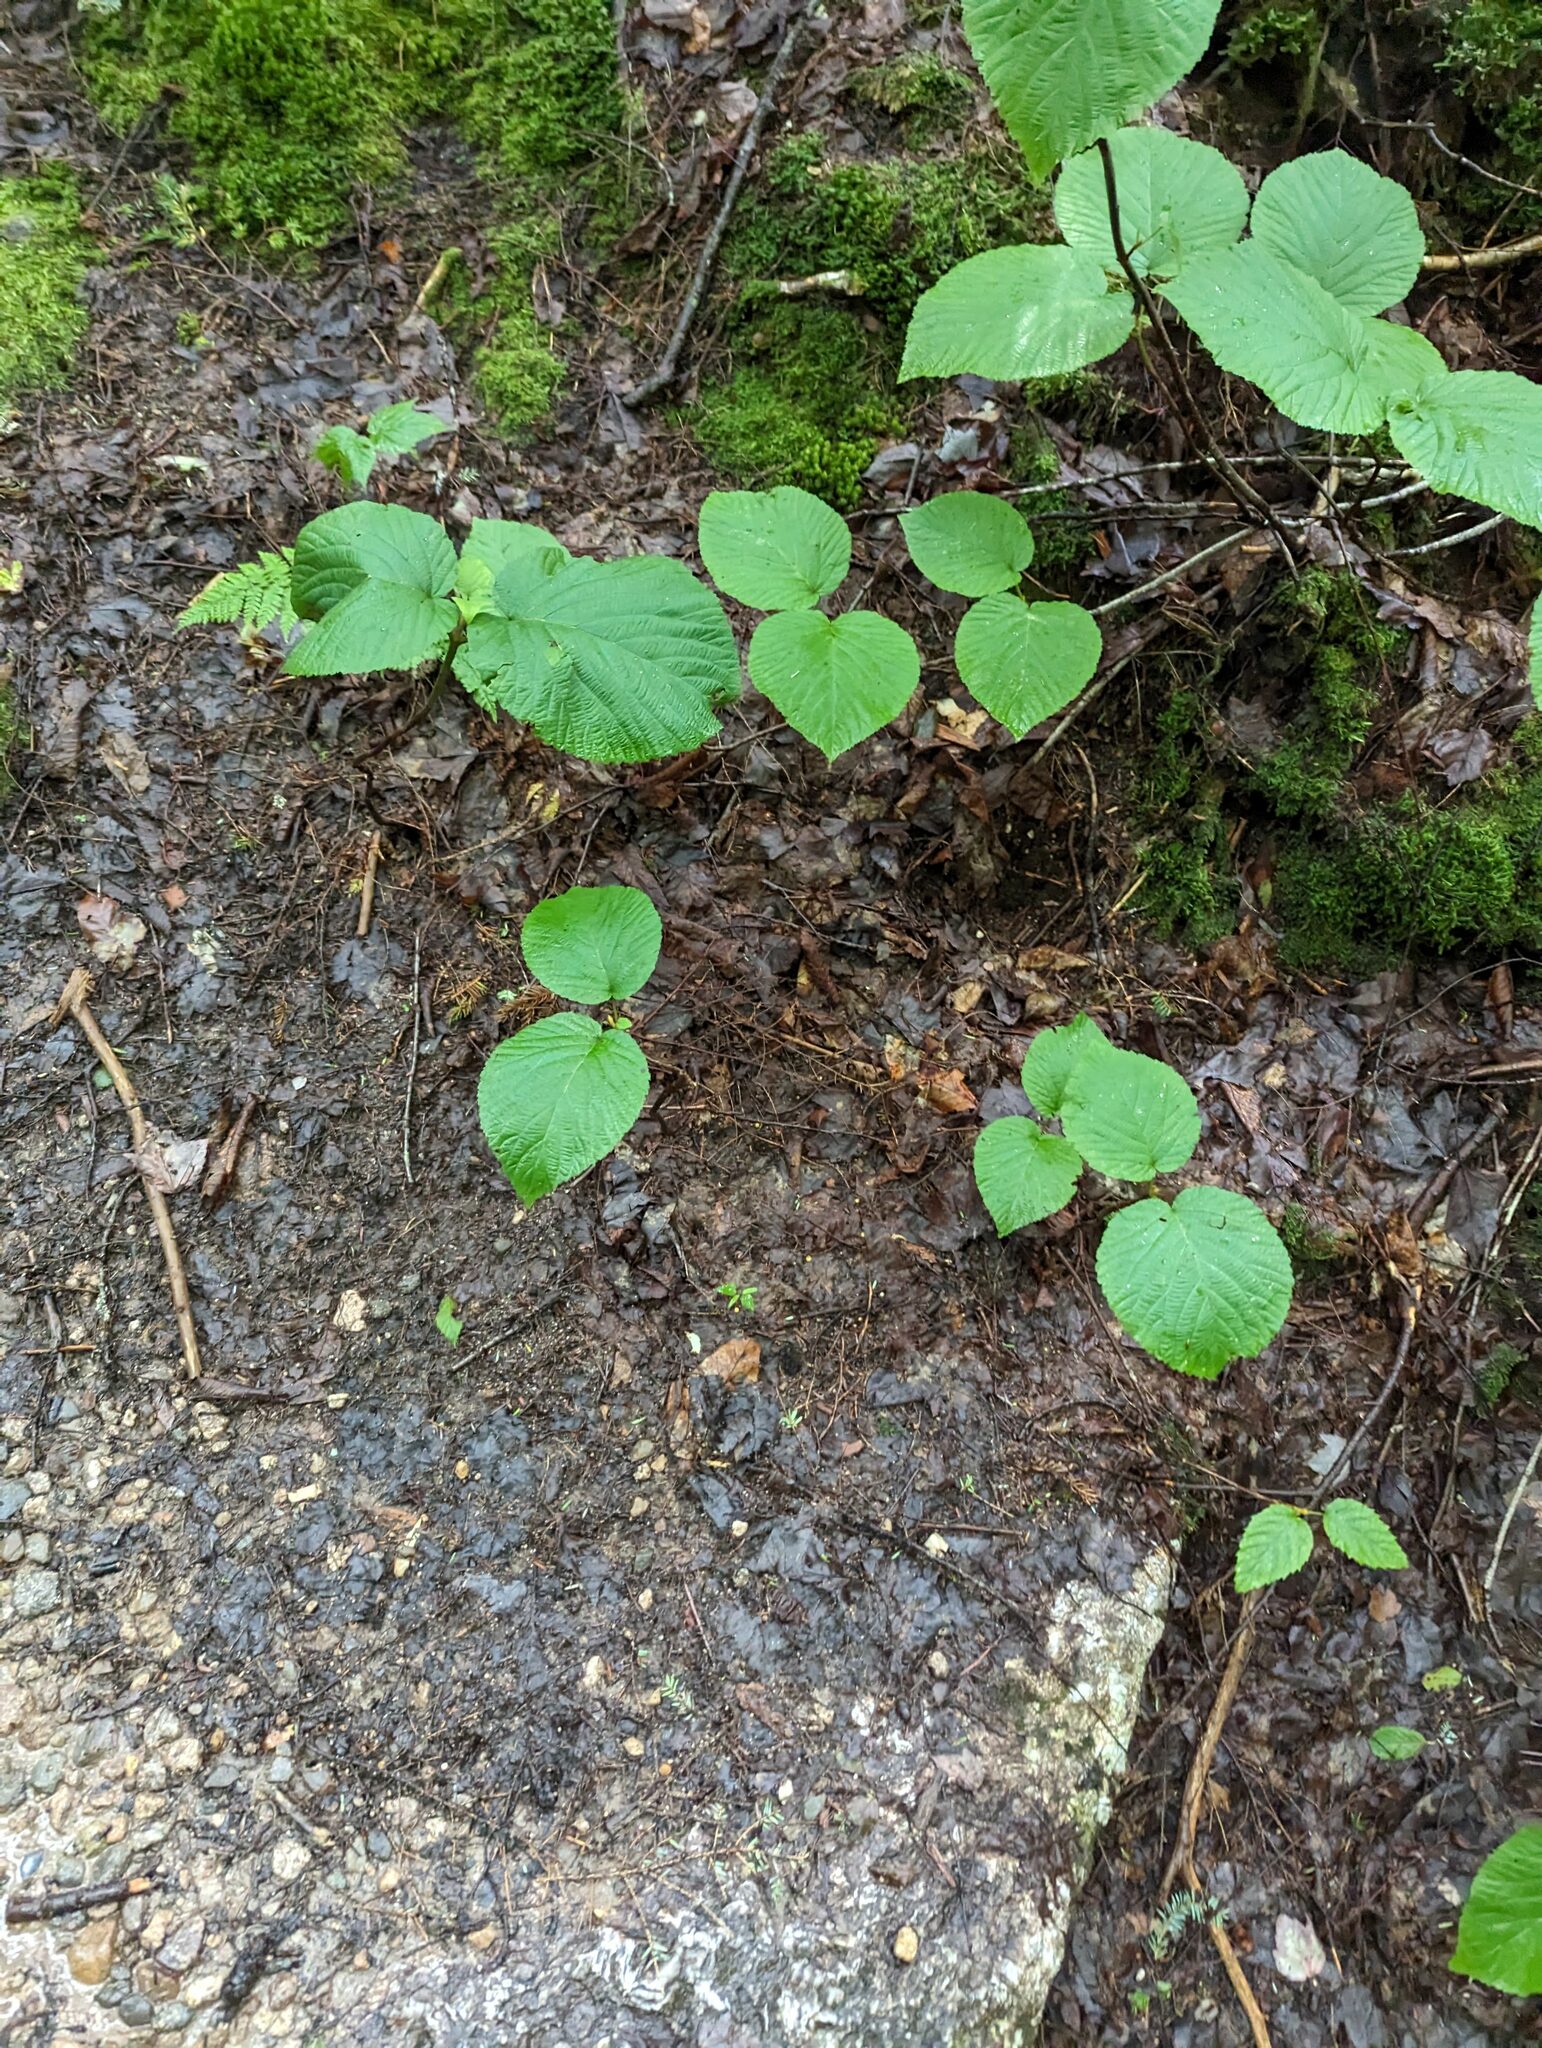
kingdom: Plantae
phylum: Tracheophyta
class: Magnoliopsida
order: Dipsacales
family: Viburnaceae
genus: Viburnum
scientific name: Viburnum lantanoides
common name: Hobblebush
